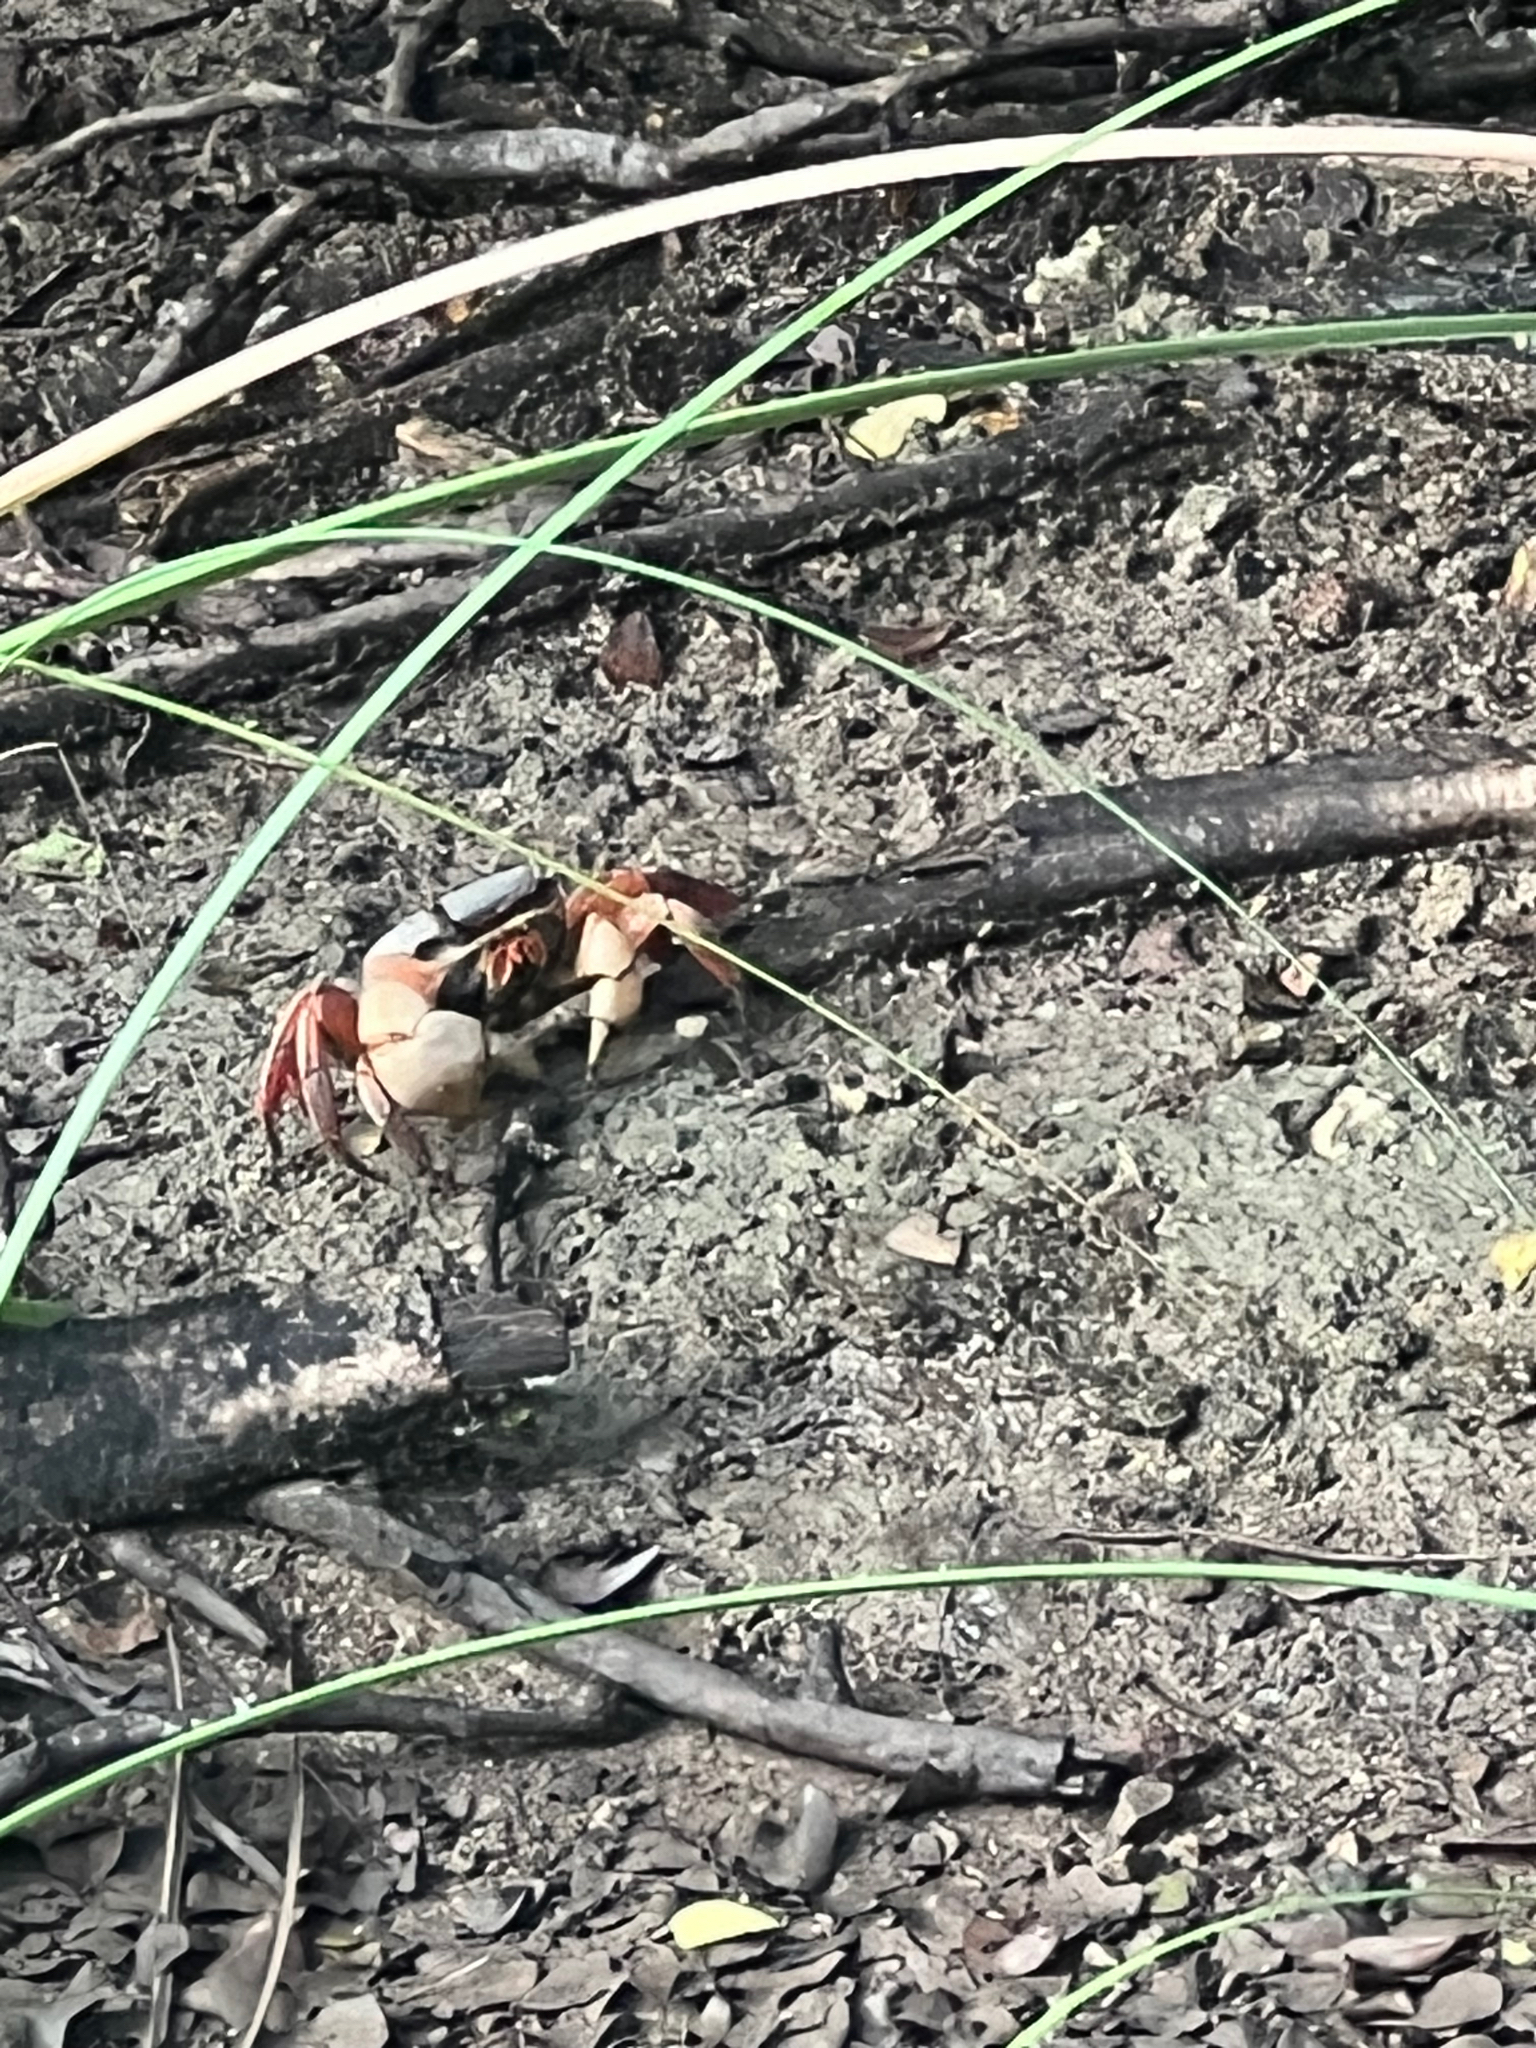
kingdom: Animalia
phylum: Arthropoda
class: Malacostraca
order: Decapoda
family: Gecarcinidae
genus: Cardisoma
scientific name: Cardisoma crassum
